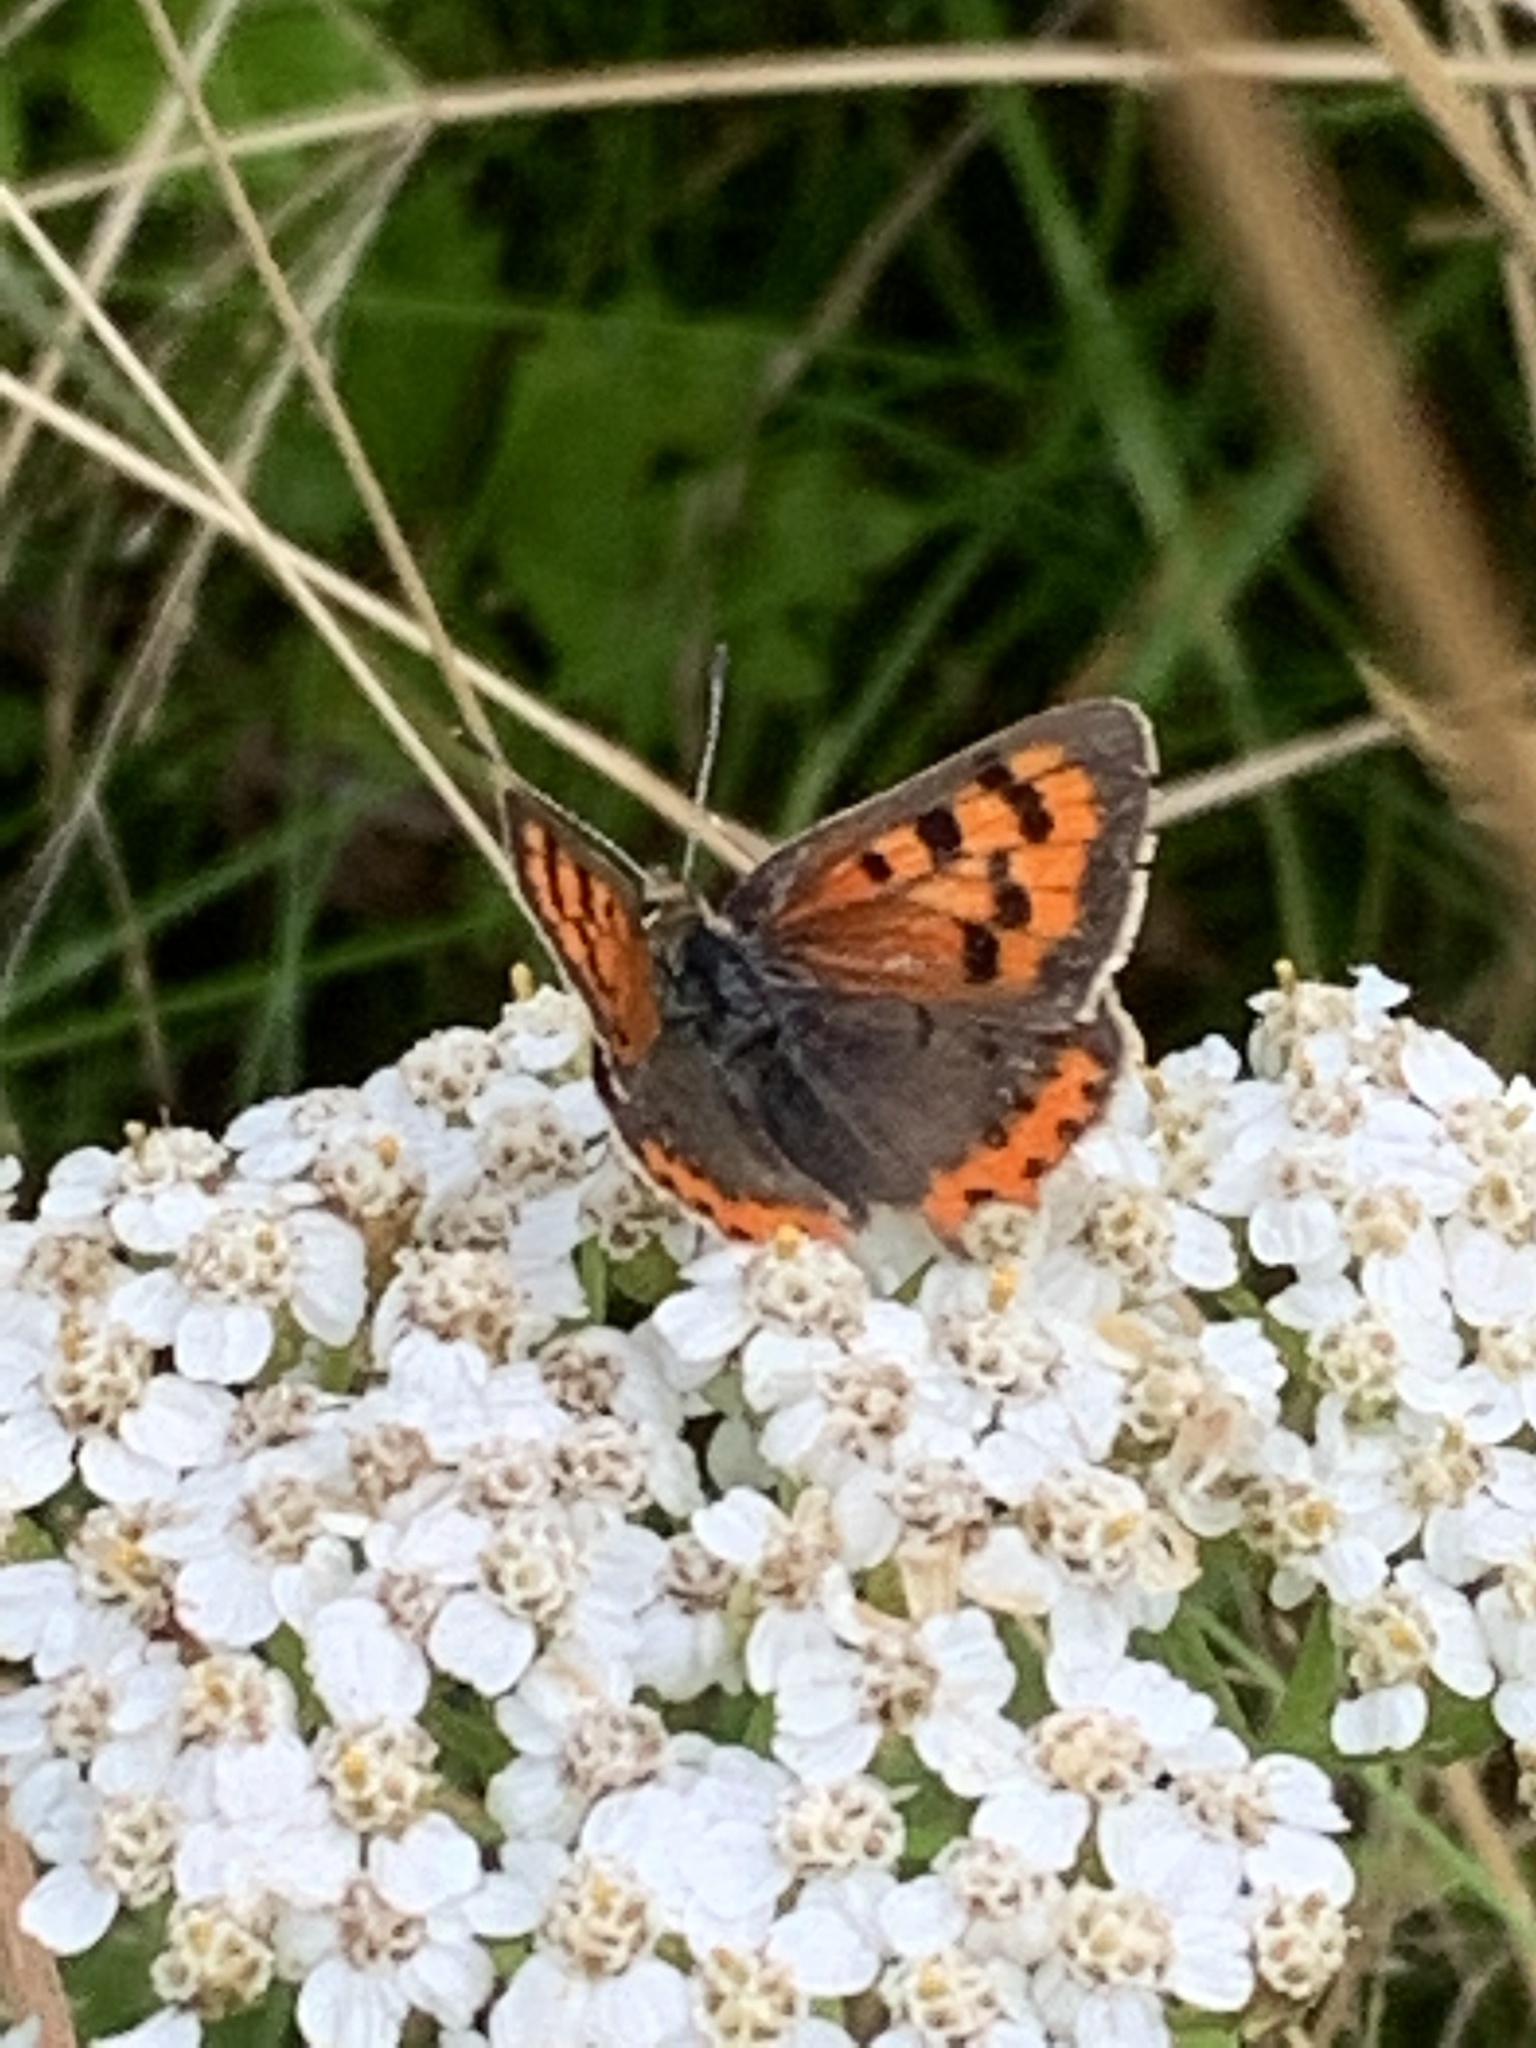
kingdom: Animalia
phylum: Arthropoda
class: Insecta
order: Lepidoptera
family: Lycaenidae
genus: Lycaena
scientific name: Lycaena phlaeas
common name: Small copper
